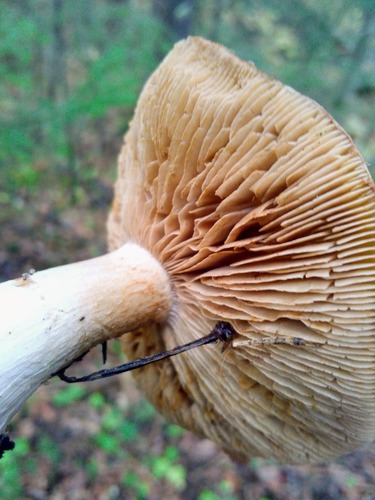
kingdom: Fungi
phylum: Basidiomycota
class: Agaricomycetes
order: Agaricales
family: Cortinariaceae
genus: Cortinarius
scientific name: Cortinarius
